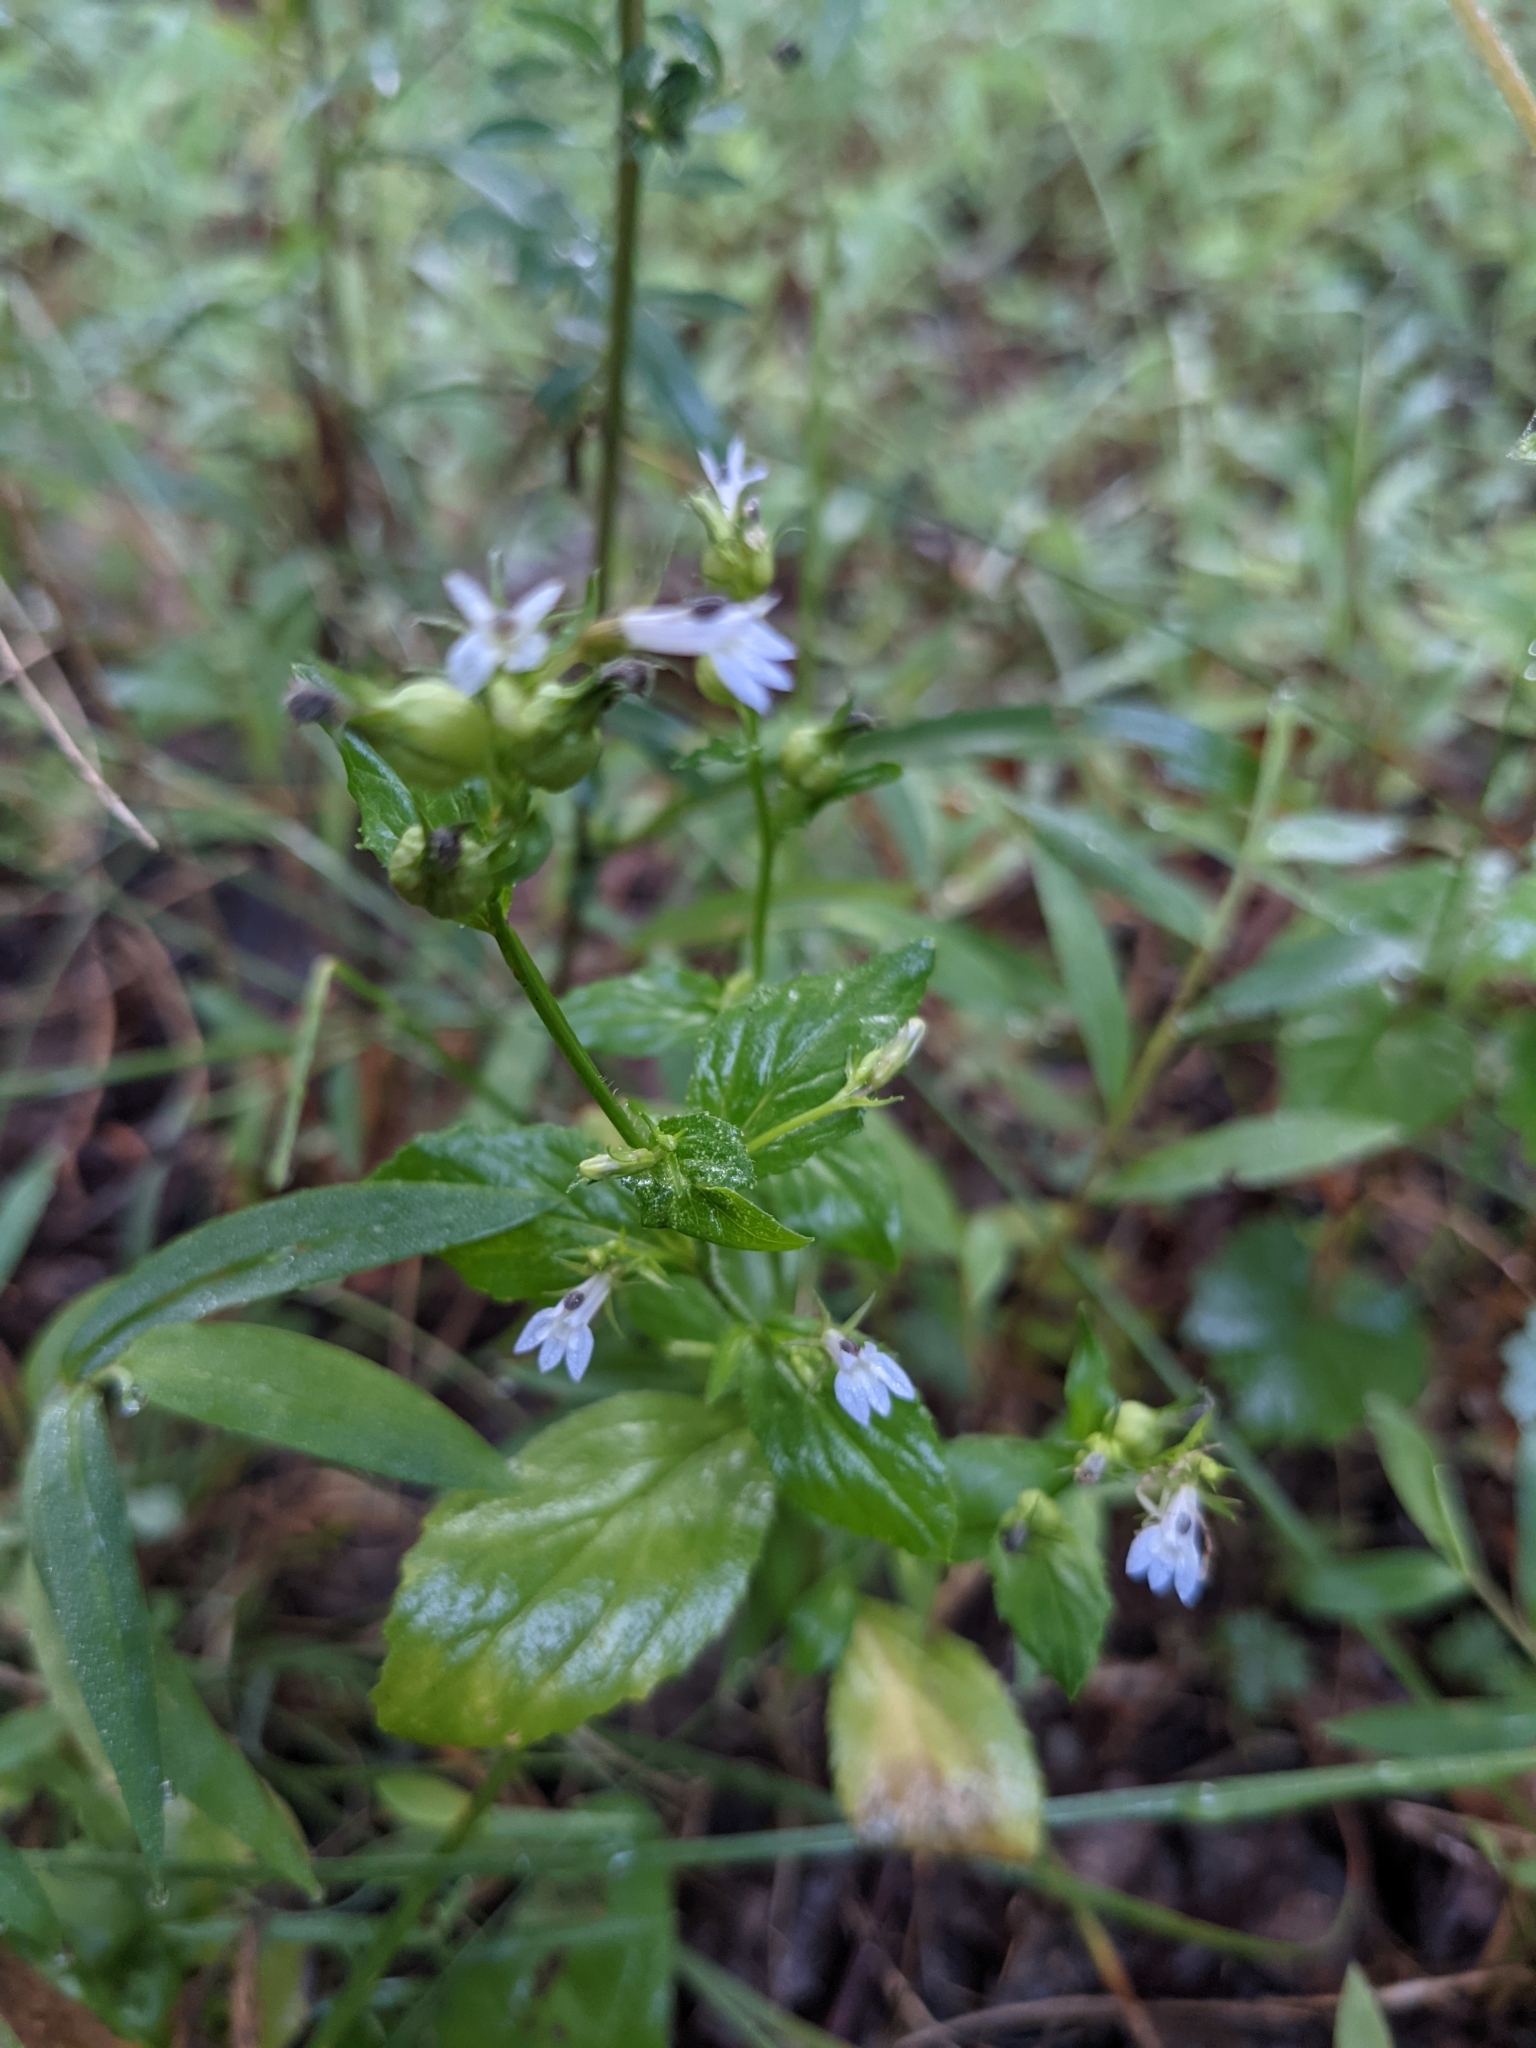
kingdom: Plantae
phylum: Tracheophyta
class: Magnoliopsida
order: Asterales
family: Campanulaceae
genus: Lobelia
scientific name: Lobelia inflata
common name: Indian tobacco
